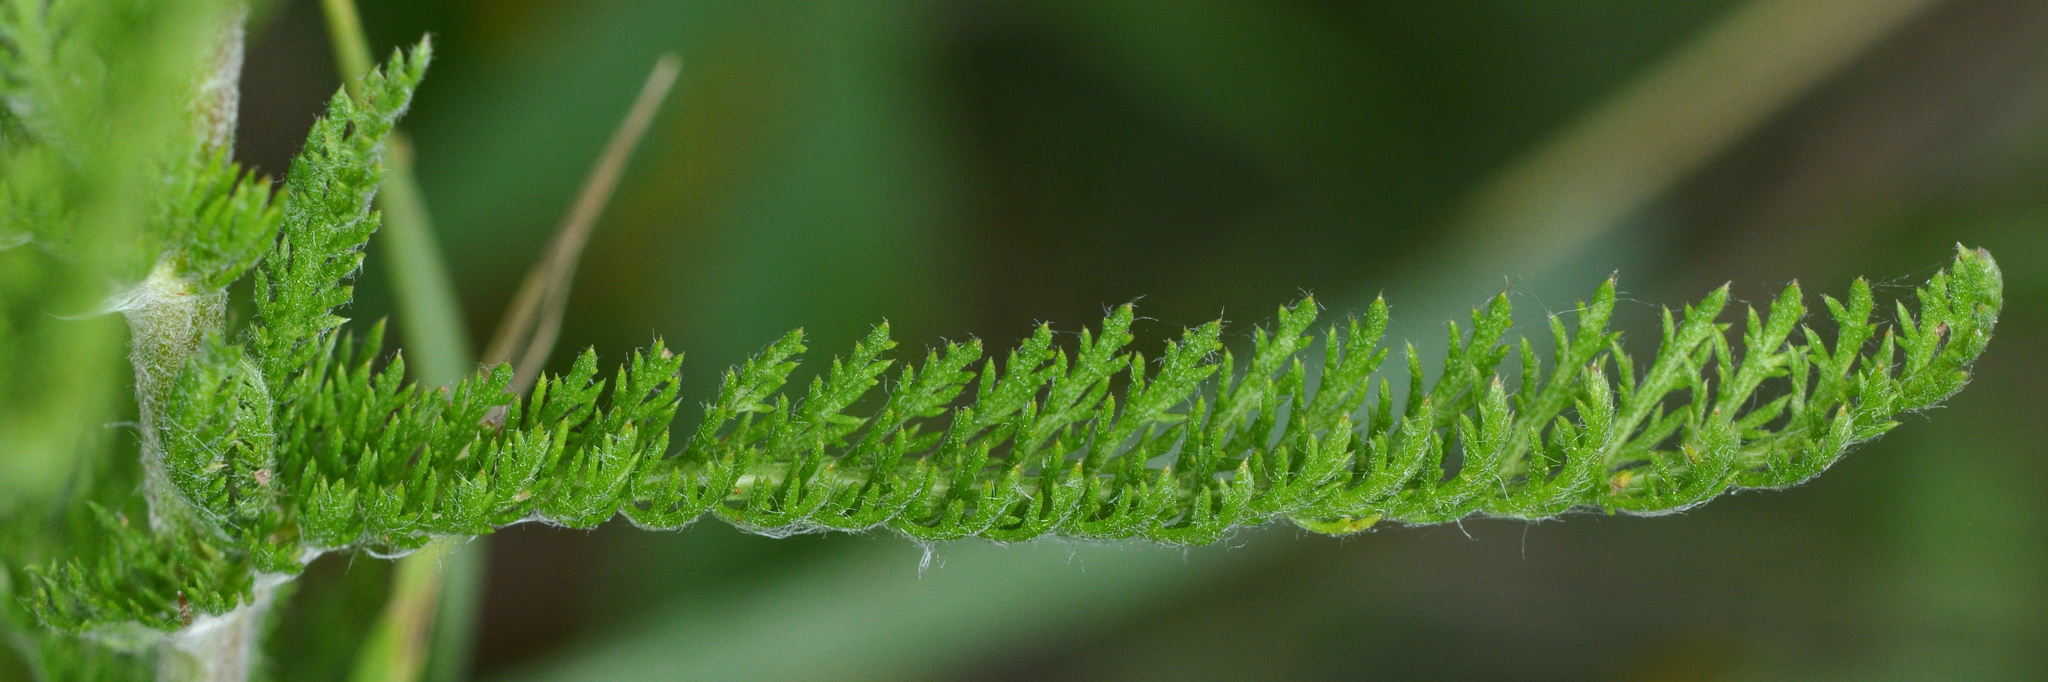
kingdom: Plantae
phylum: Tracheophyta
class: Magnoliopsida
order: Asterales
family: Asteraceae
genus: Achillea
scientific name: Achillea millefolium
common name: Yarrow
